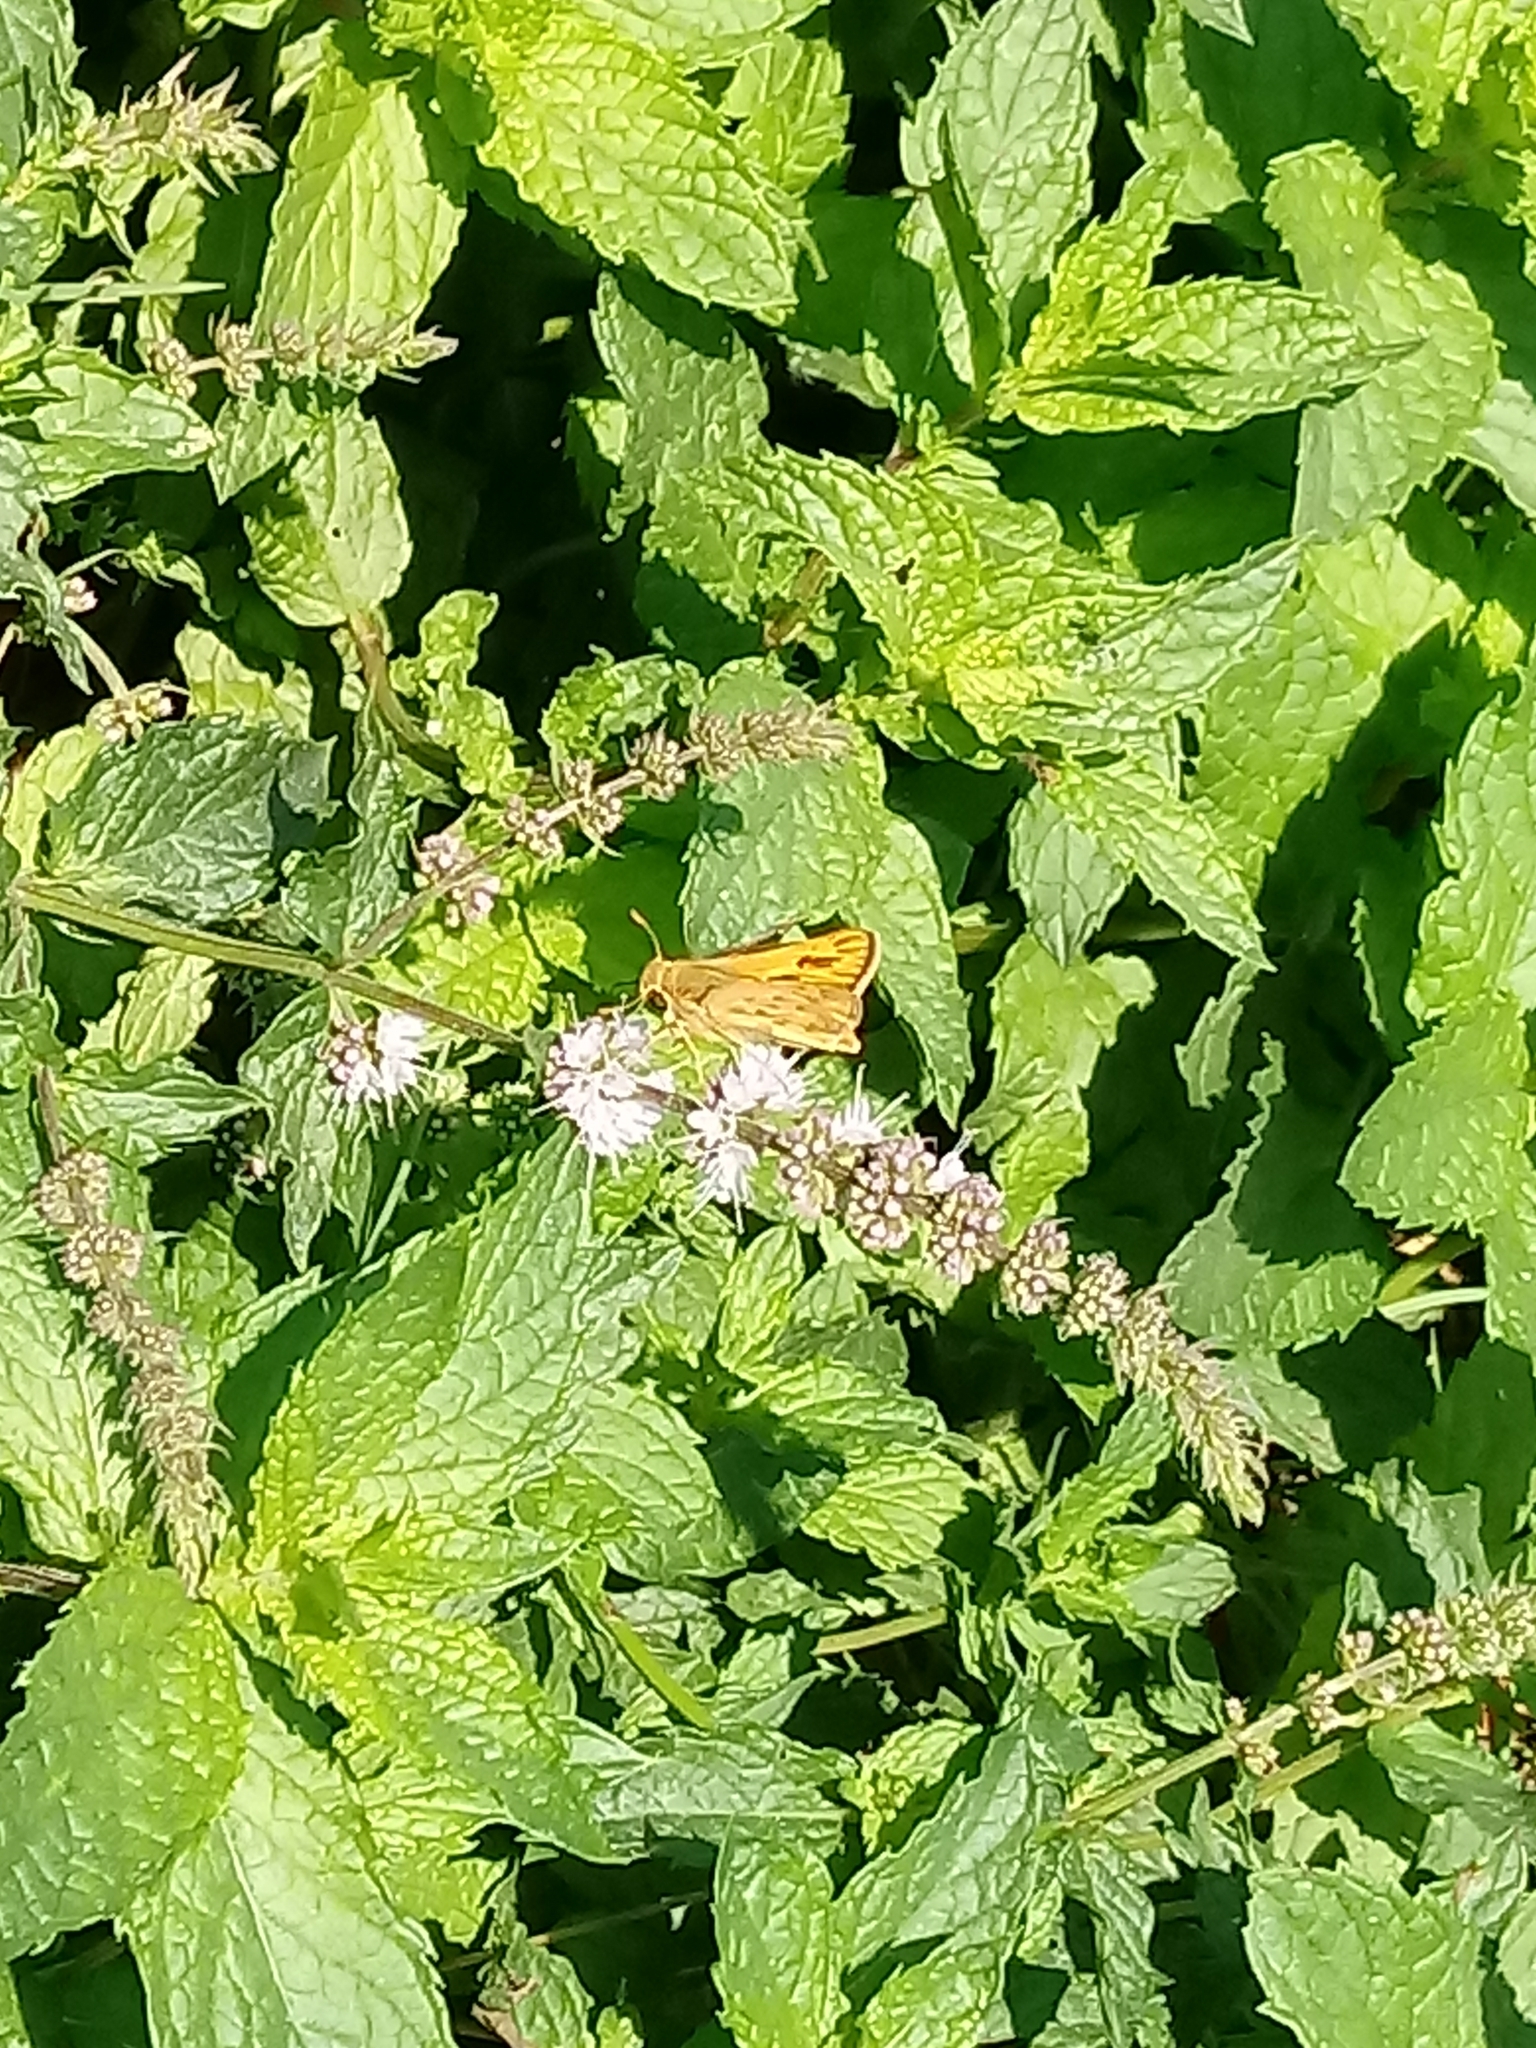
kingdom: Animalia
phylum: Arthropoda
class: Insecta
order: Lepidoptera
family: Hesperiidae
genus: Hylephila
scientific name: Hylephila phyleus
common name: Fiery skipper
